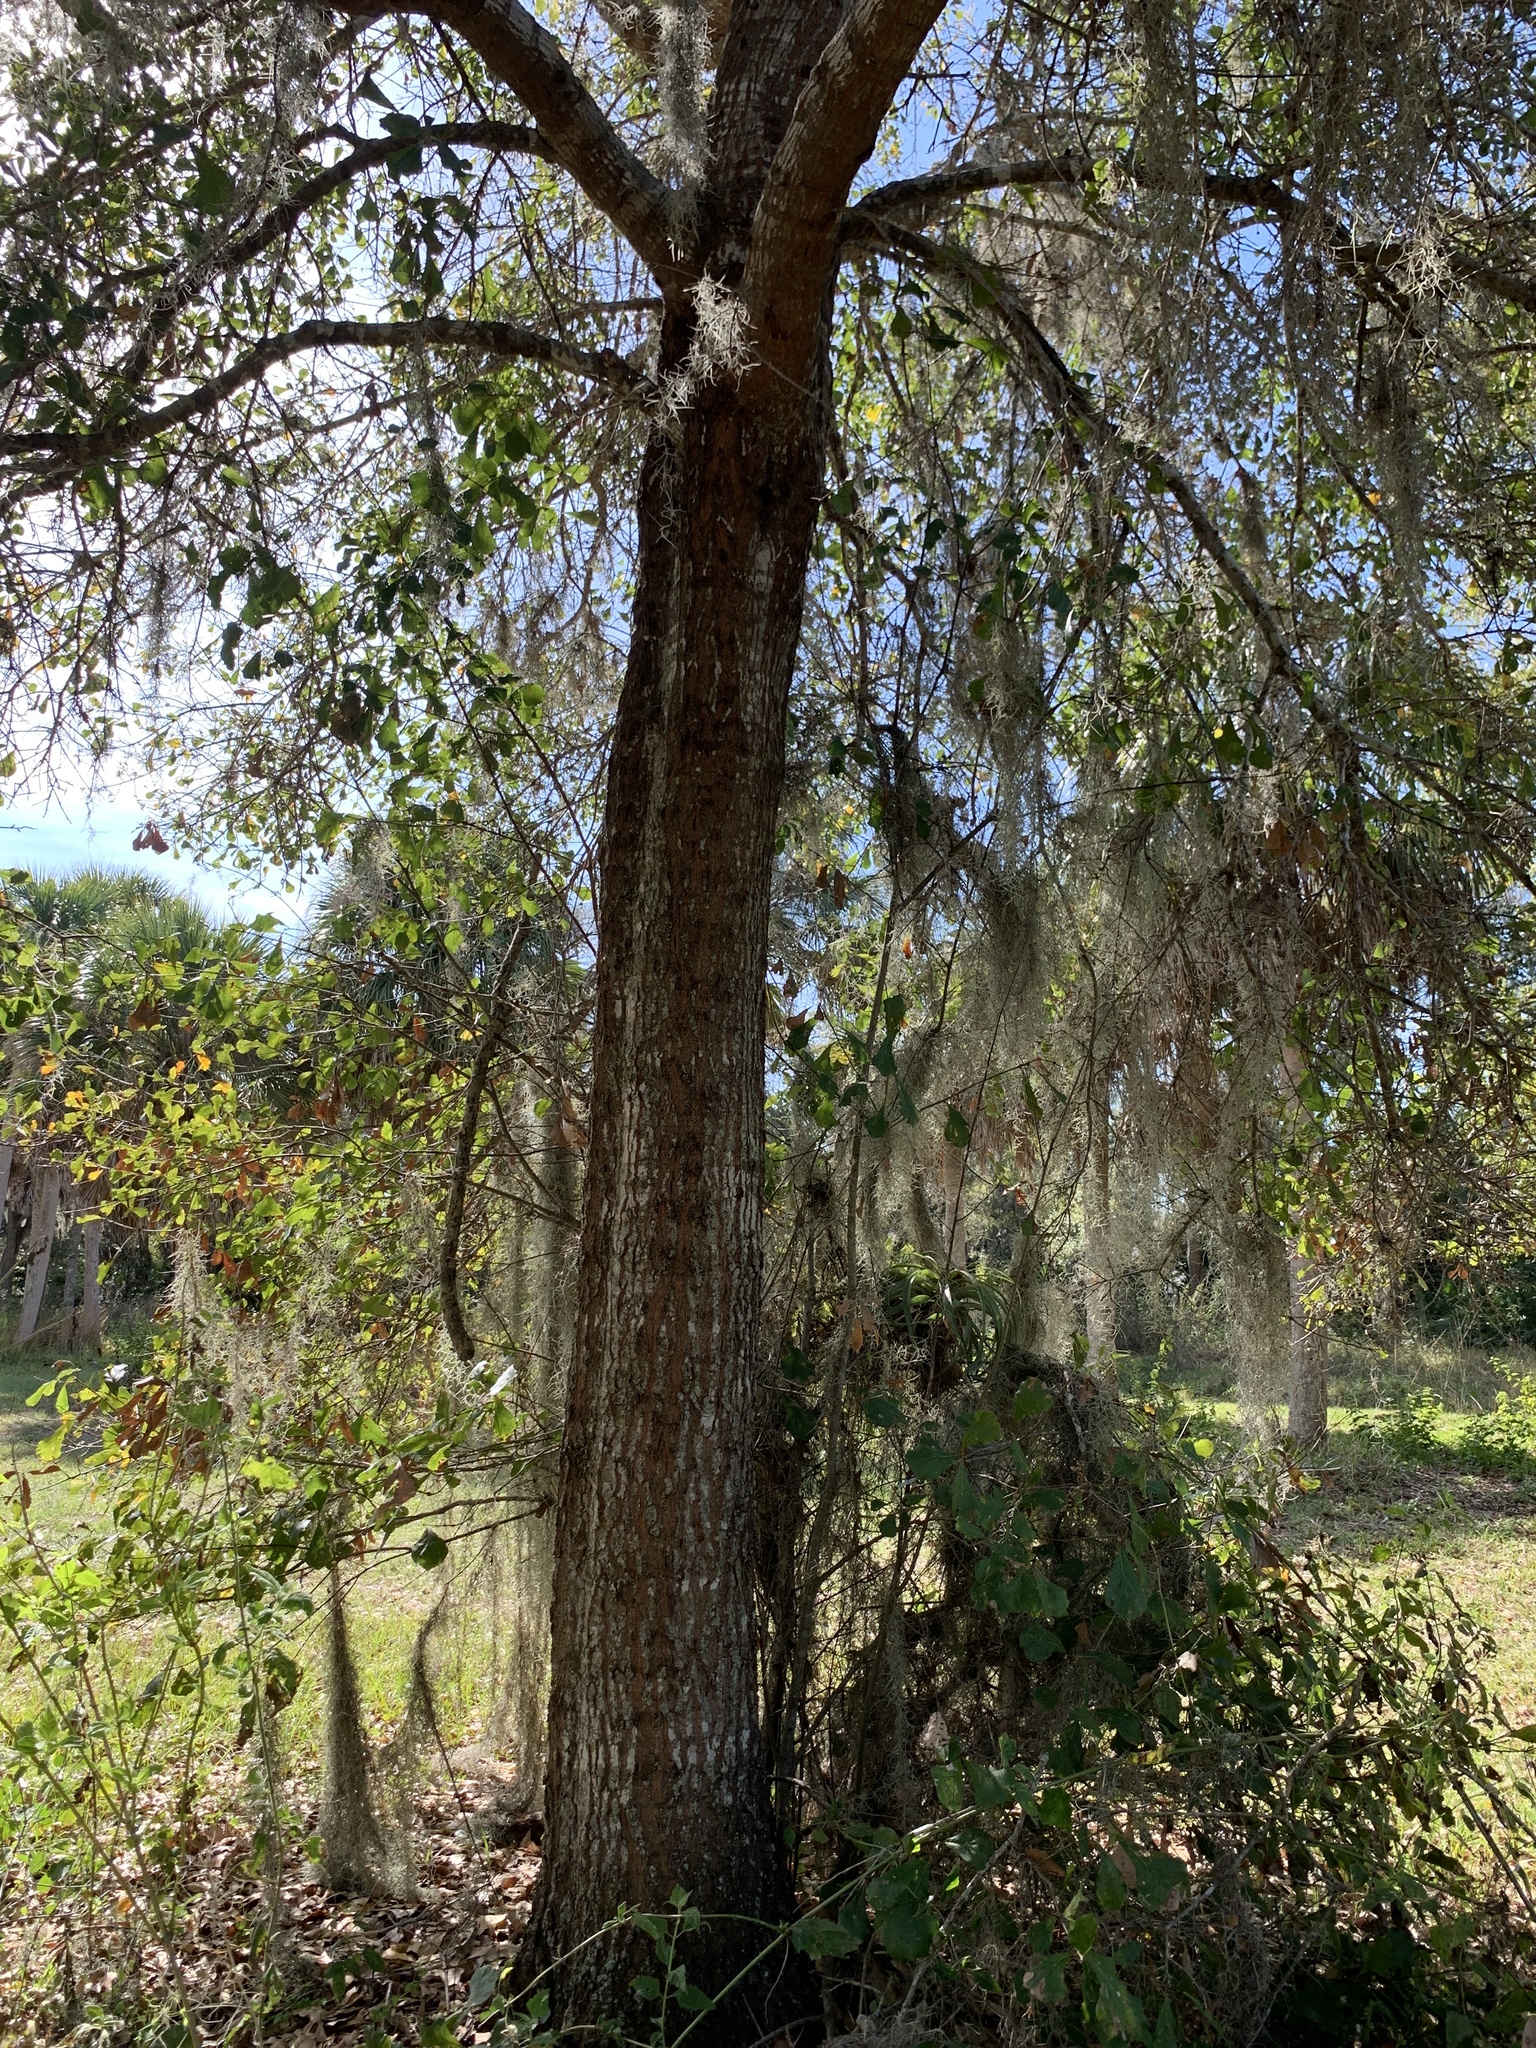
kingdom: Plantae
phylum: Tracheophyta
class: Magnoliopsida
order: Fagales
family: Fagaceae
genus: Quercus
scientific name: Quercus nigra
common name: Water oak
